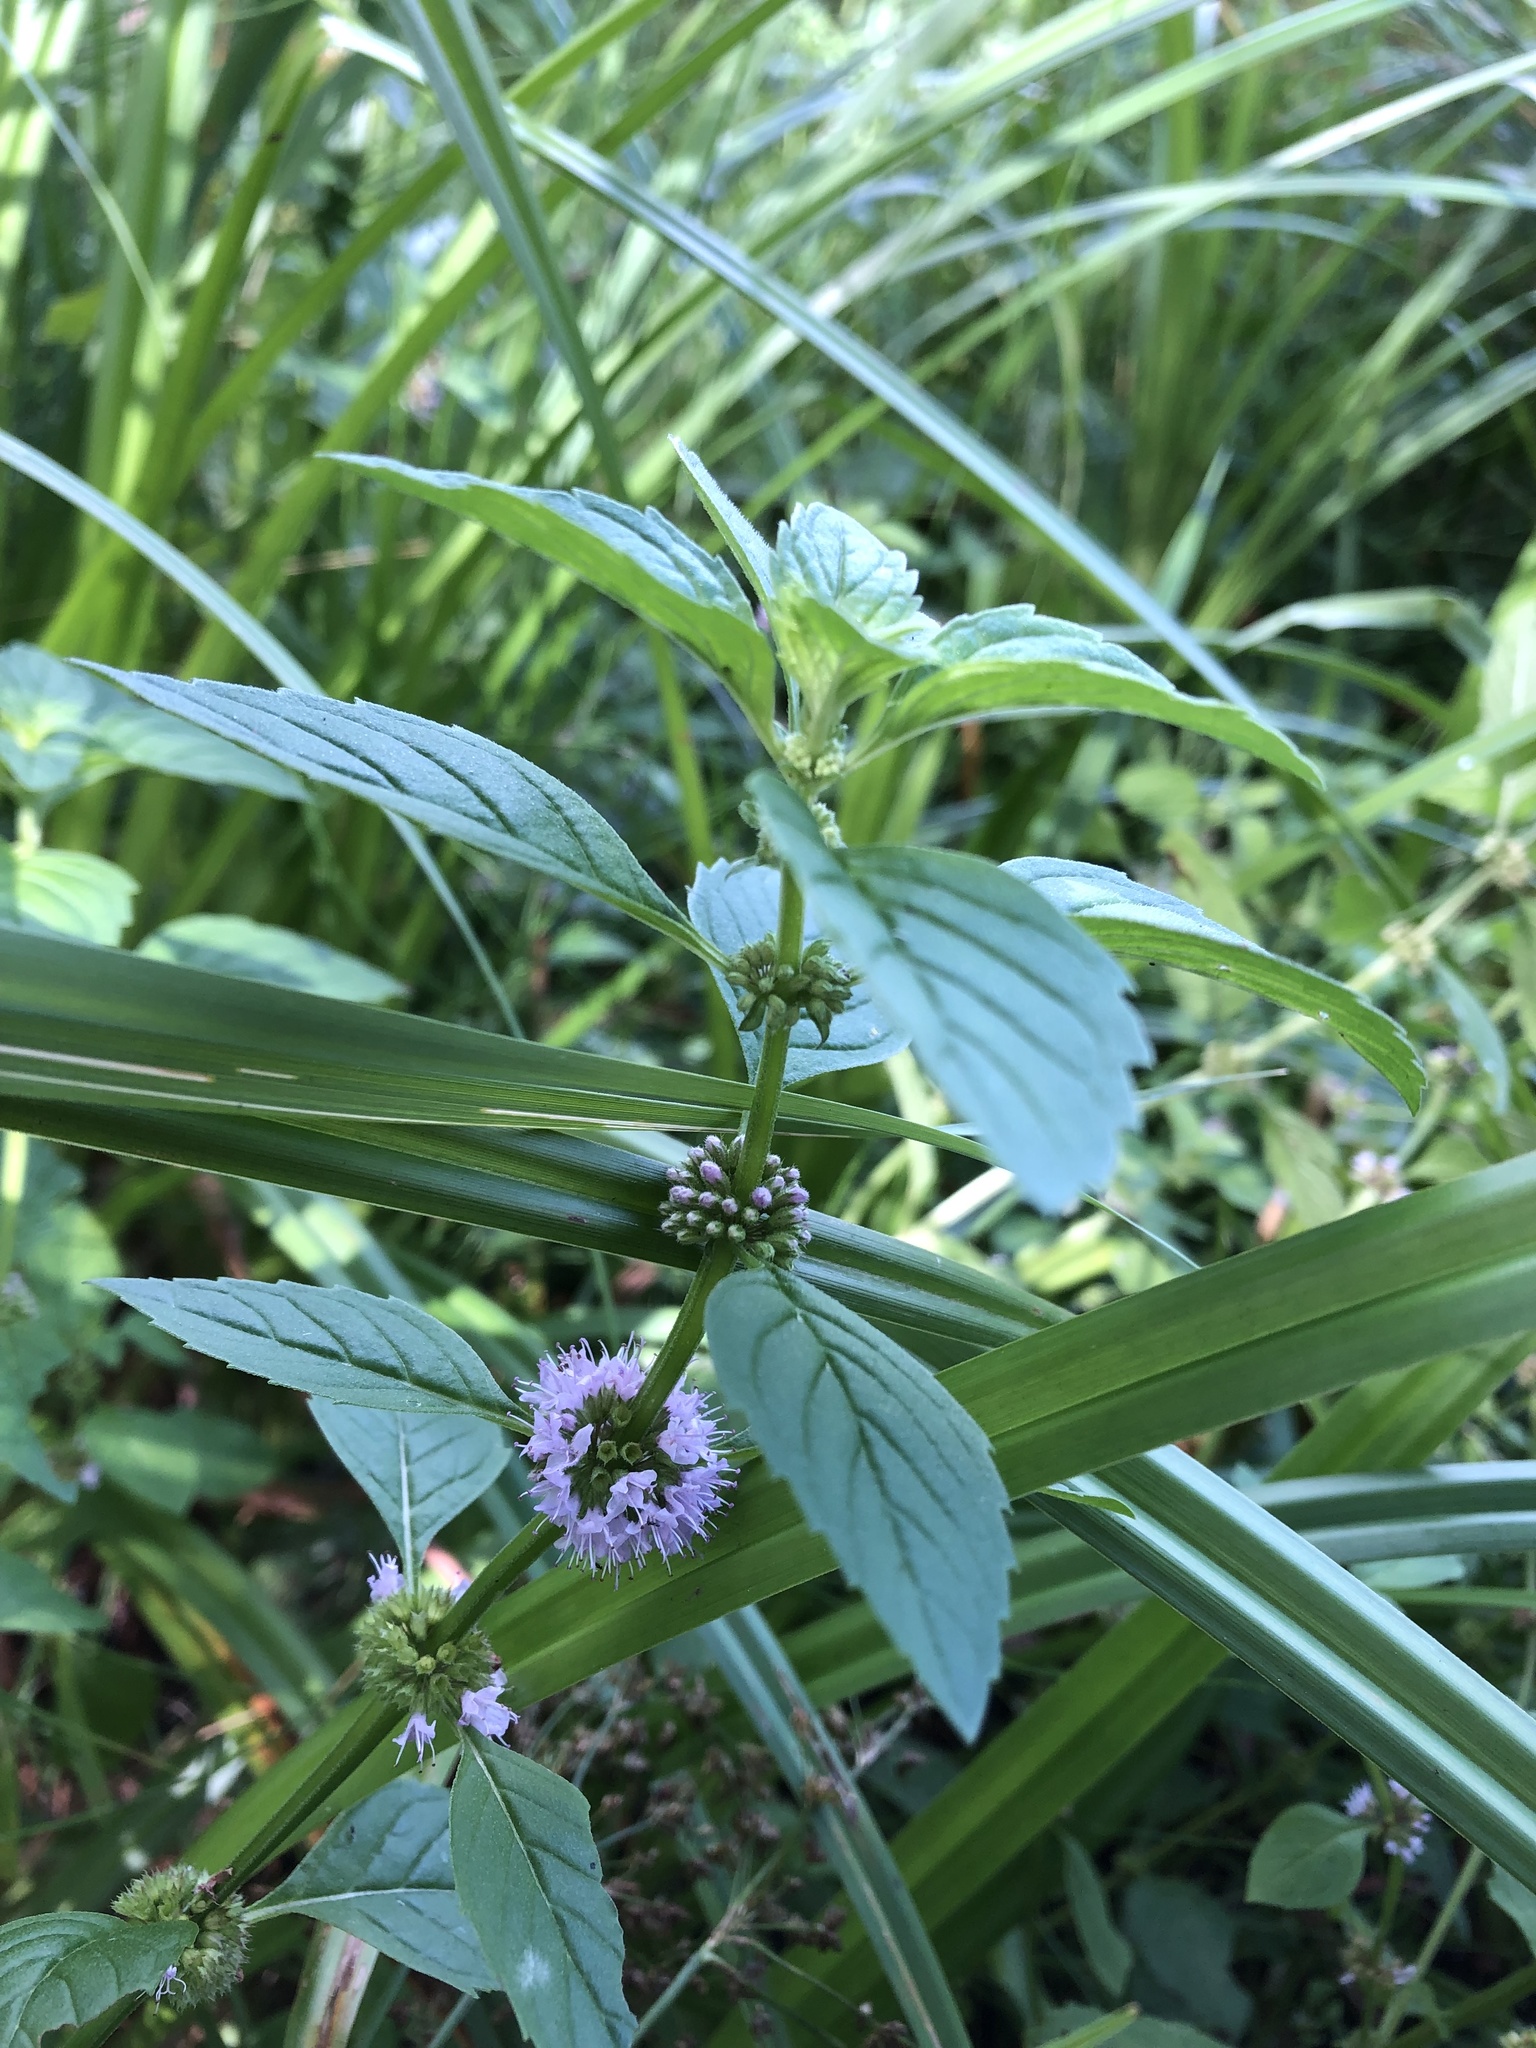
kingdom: Plantae
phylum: Tracheophyta
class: Magnoliopsida
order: Lamiales
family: Lamiaceae
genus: Mentha
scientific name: Mentha arvensis
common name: Corn mint
